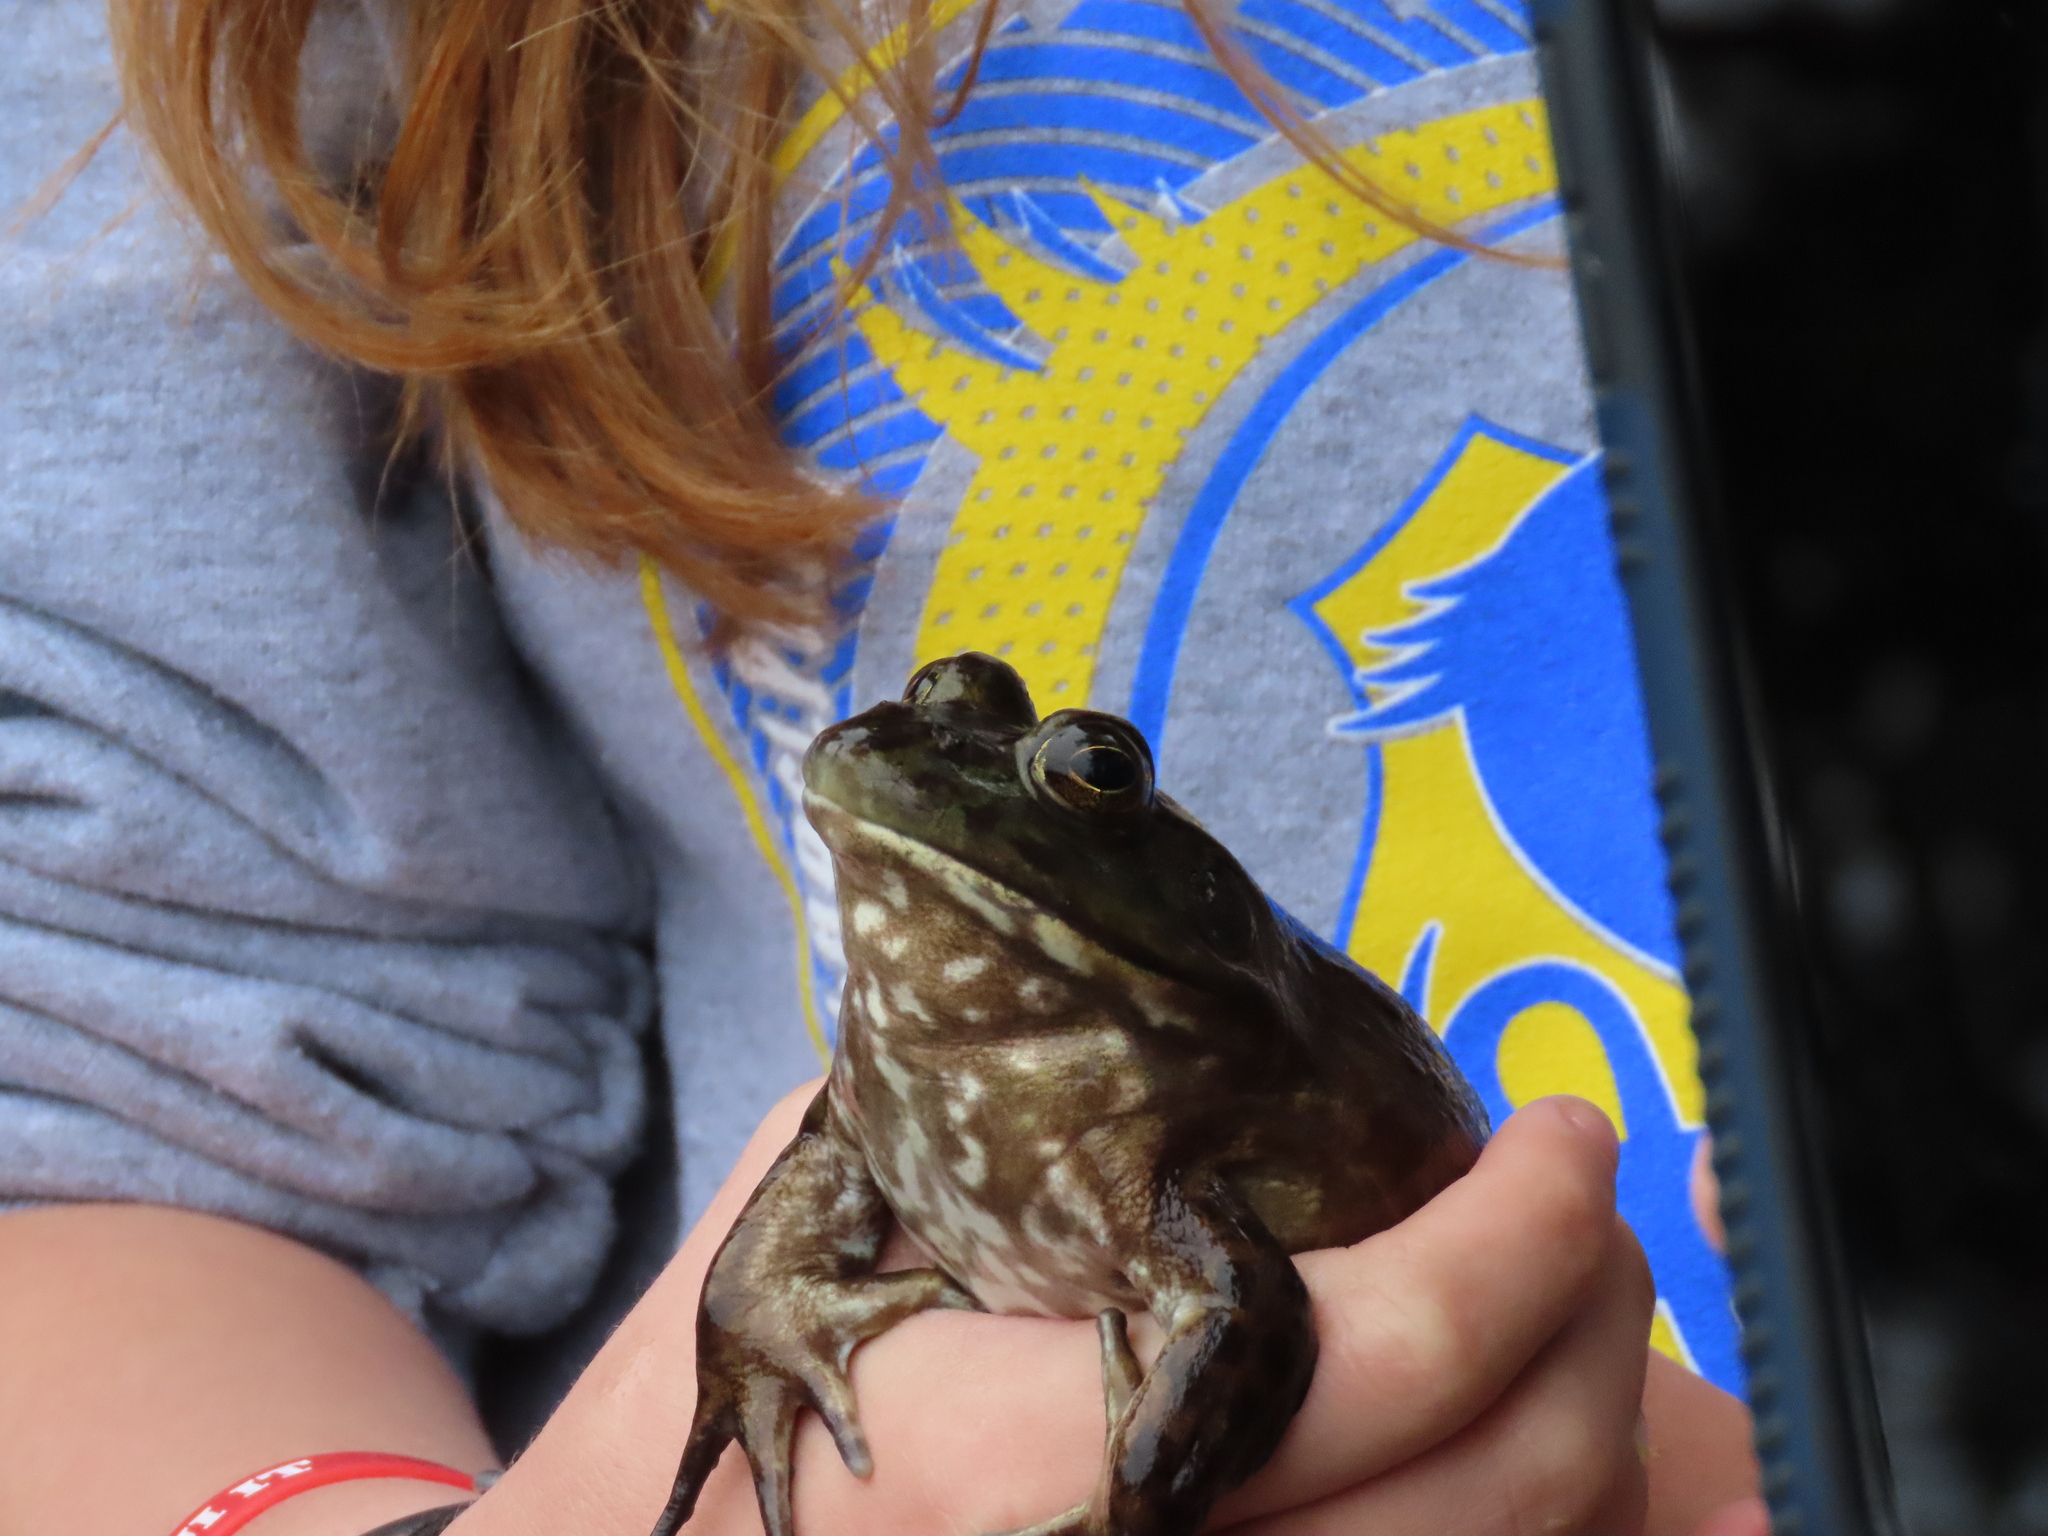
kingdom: Animalia
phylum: Chordata
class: Amphibia
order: Anura
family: Ranidae
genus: Lithobates
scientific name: Lithobates catesbeianus
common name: American bullfrog
